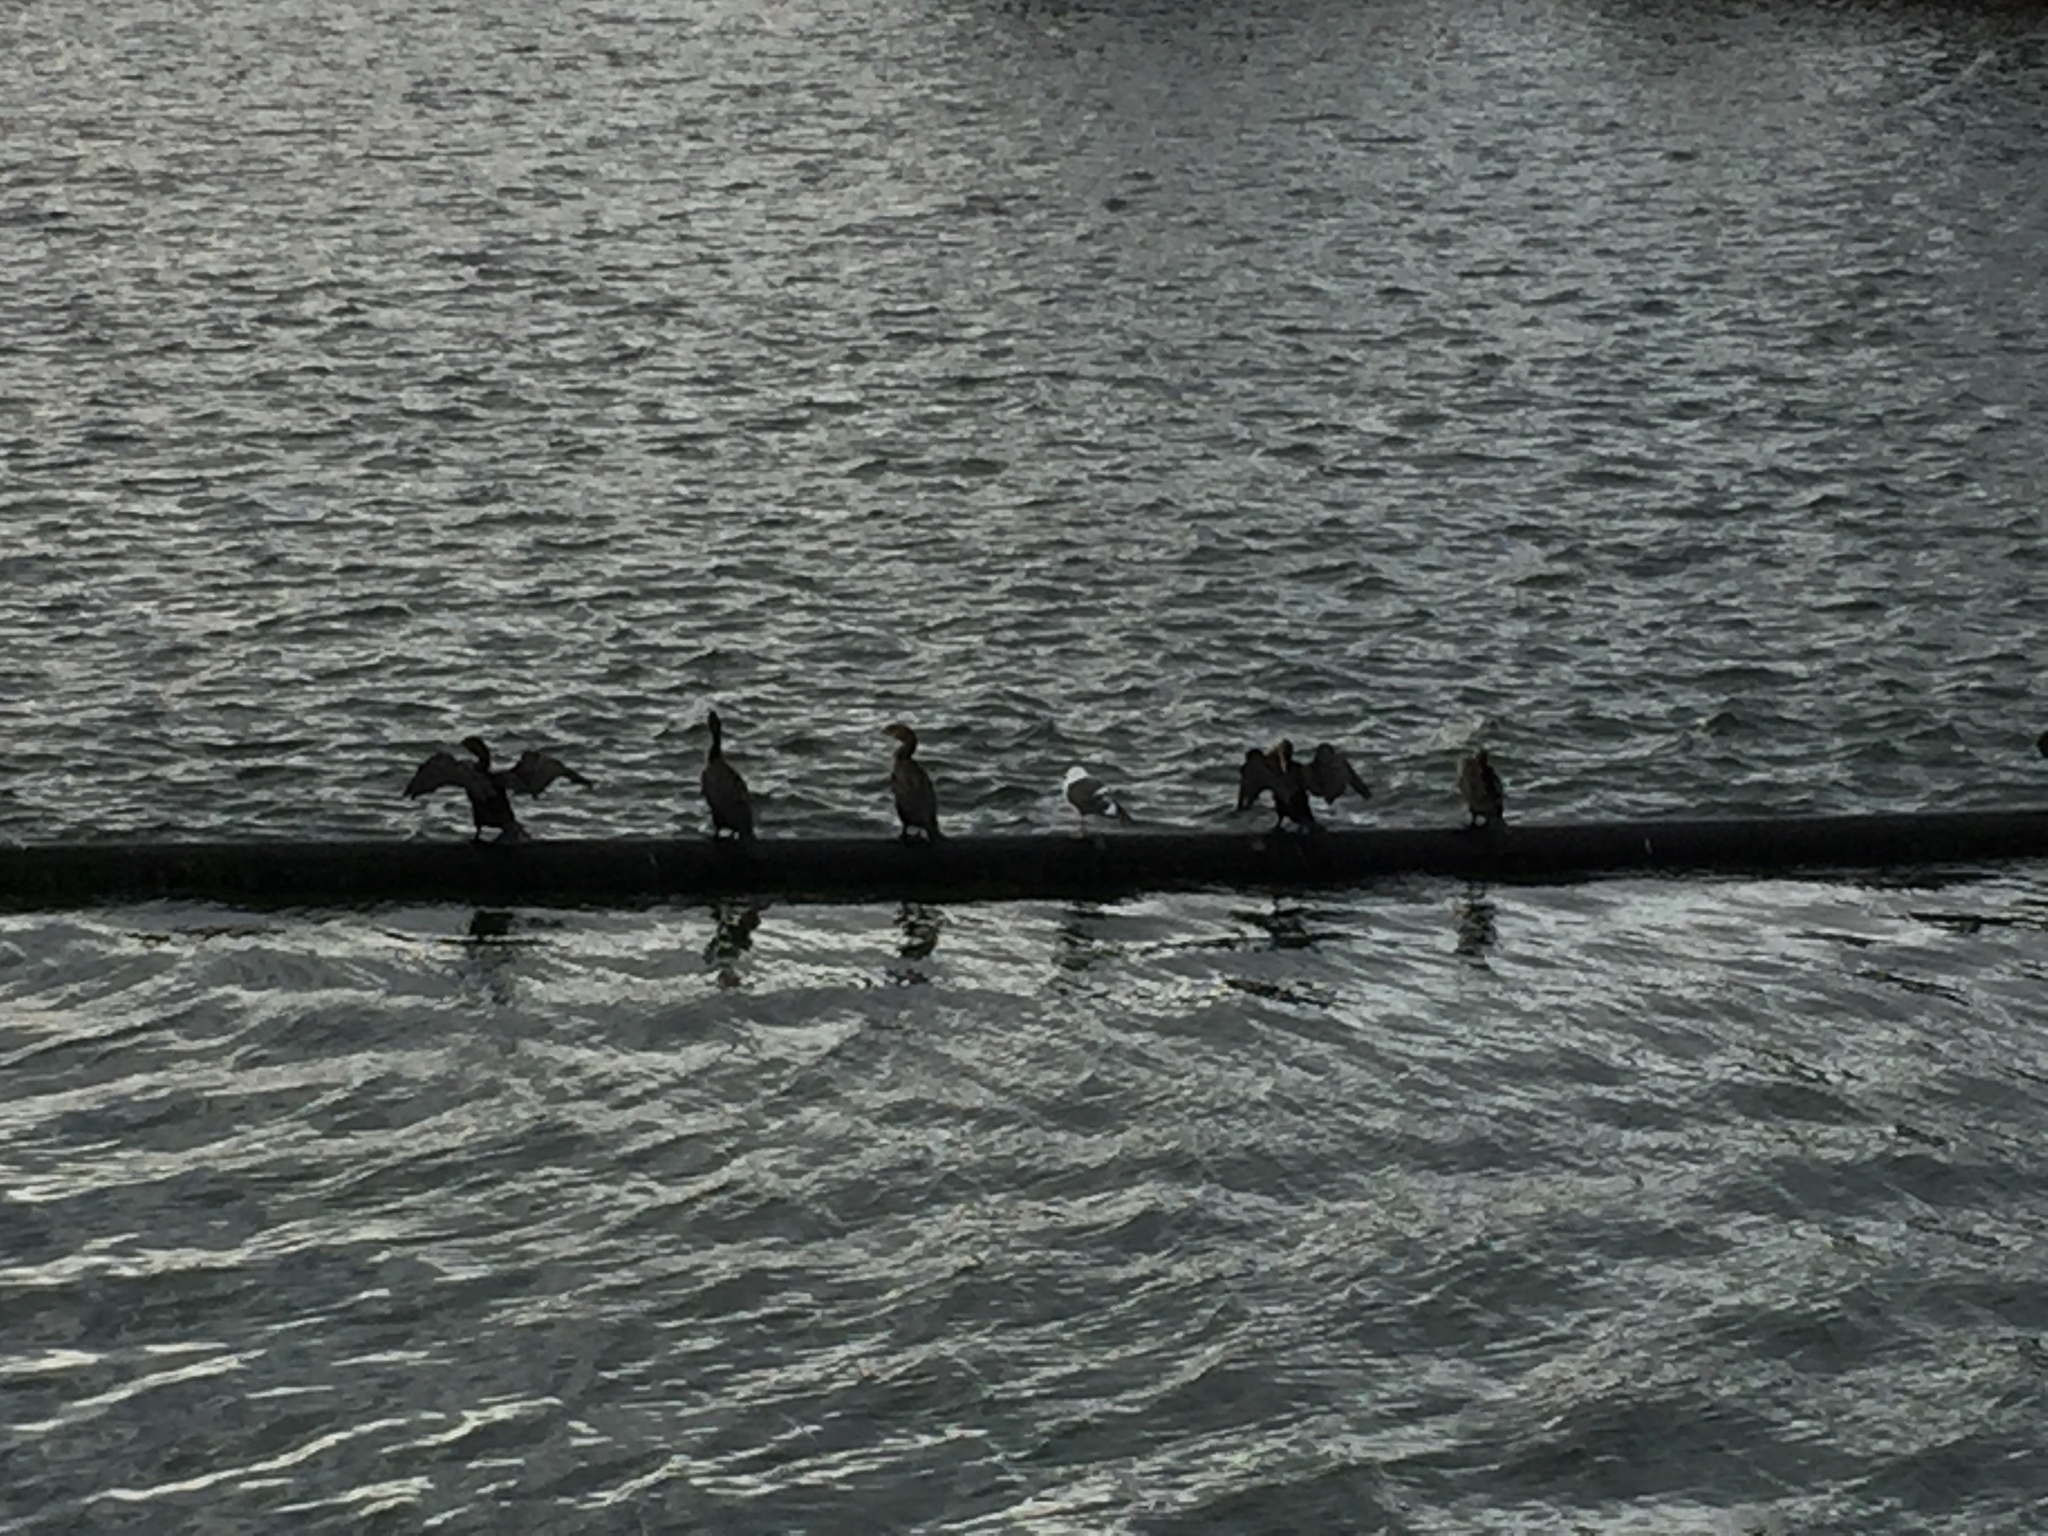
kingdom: Animalia
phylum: Chordata
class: Aves
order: Suliformes
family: Phalacrocoracidae
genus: Phalacrocorax
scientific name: Phalacrocorax auritus
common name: Double-crested cormorant
